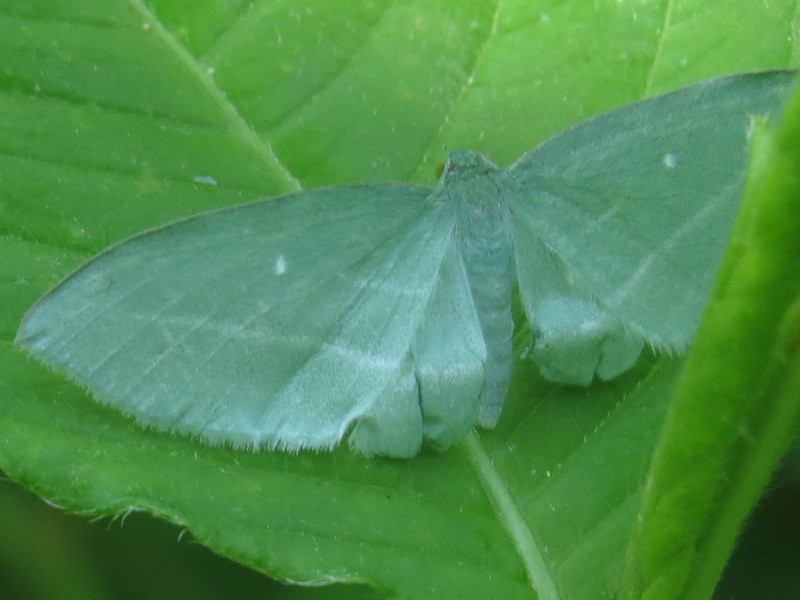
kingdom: Animalia
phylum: Arthropoda
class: Insecta
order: Lepidoptera
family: Geometridae
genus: Dyspteris
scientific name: Dyspteris abortivaria
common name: Bad-wing
